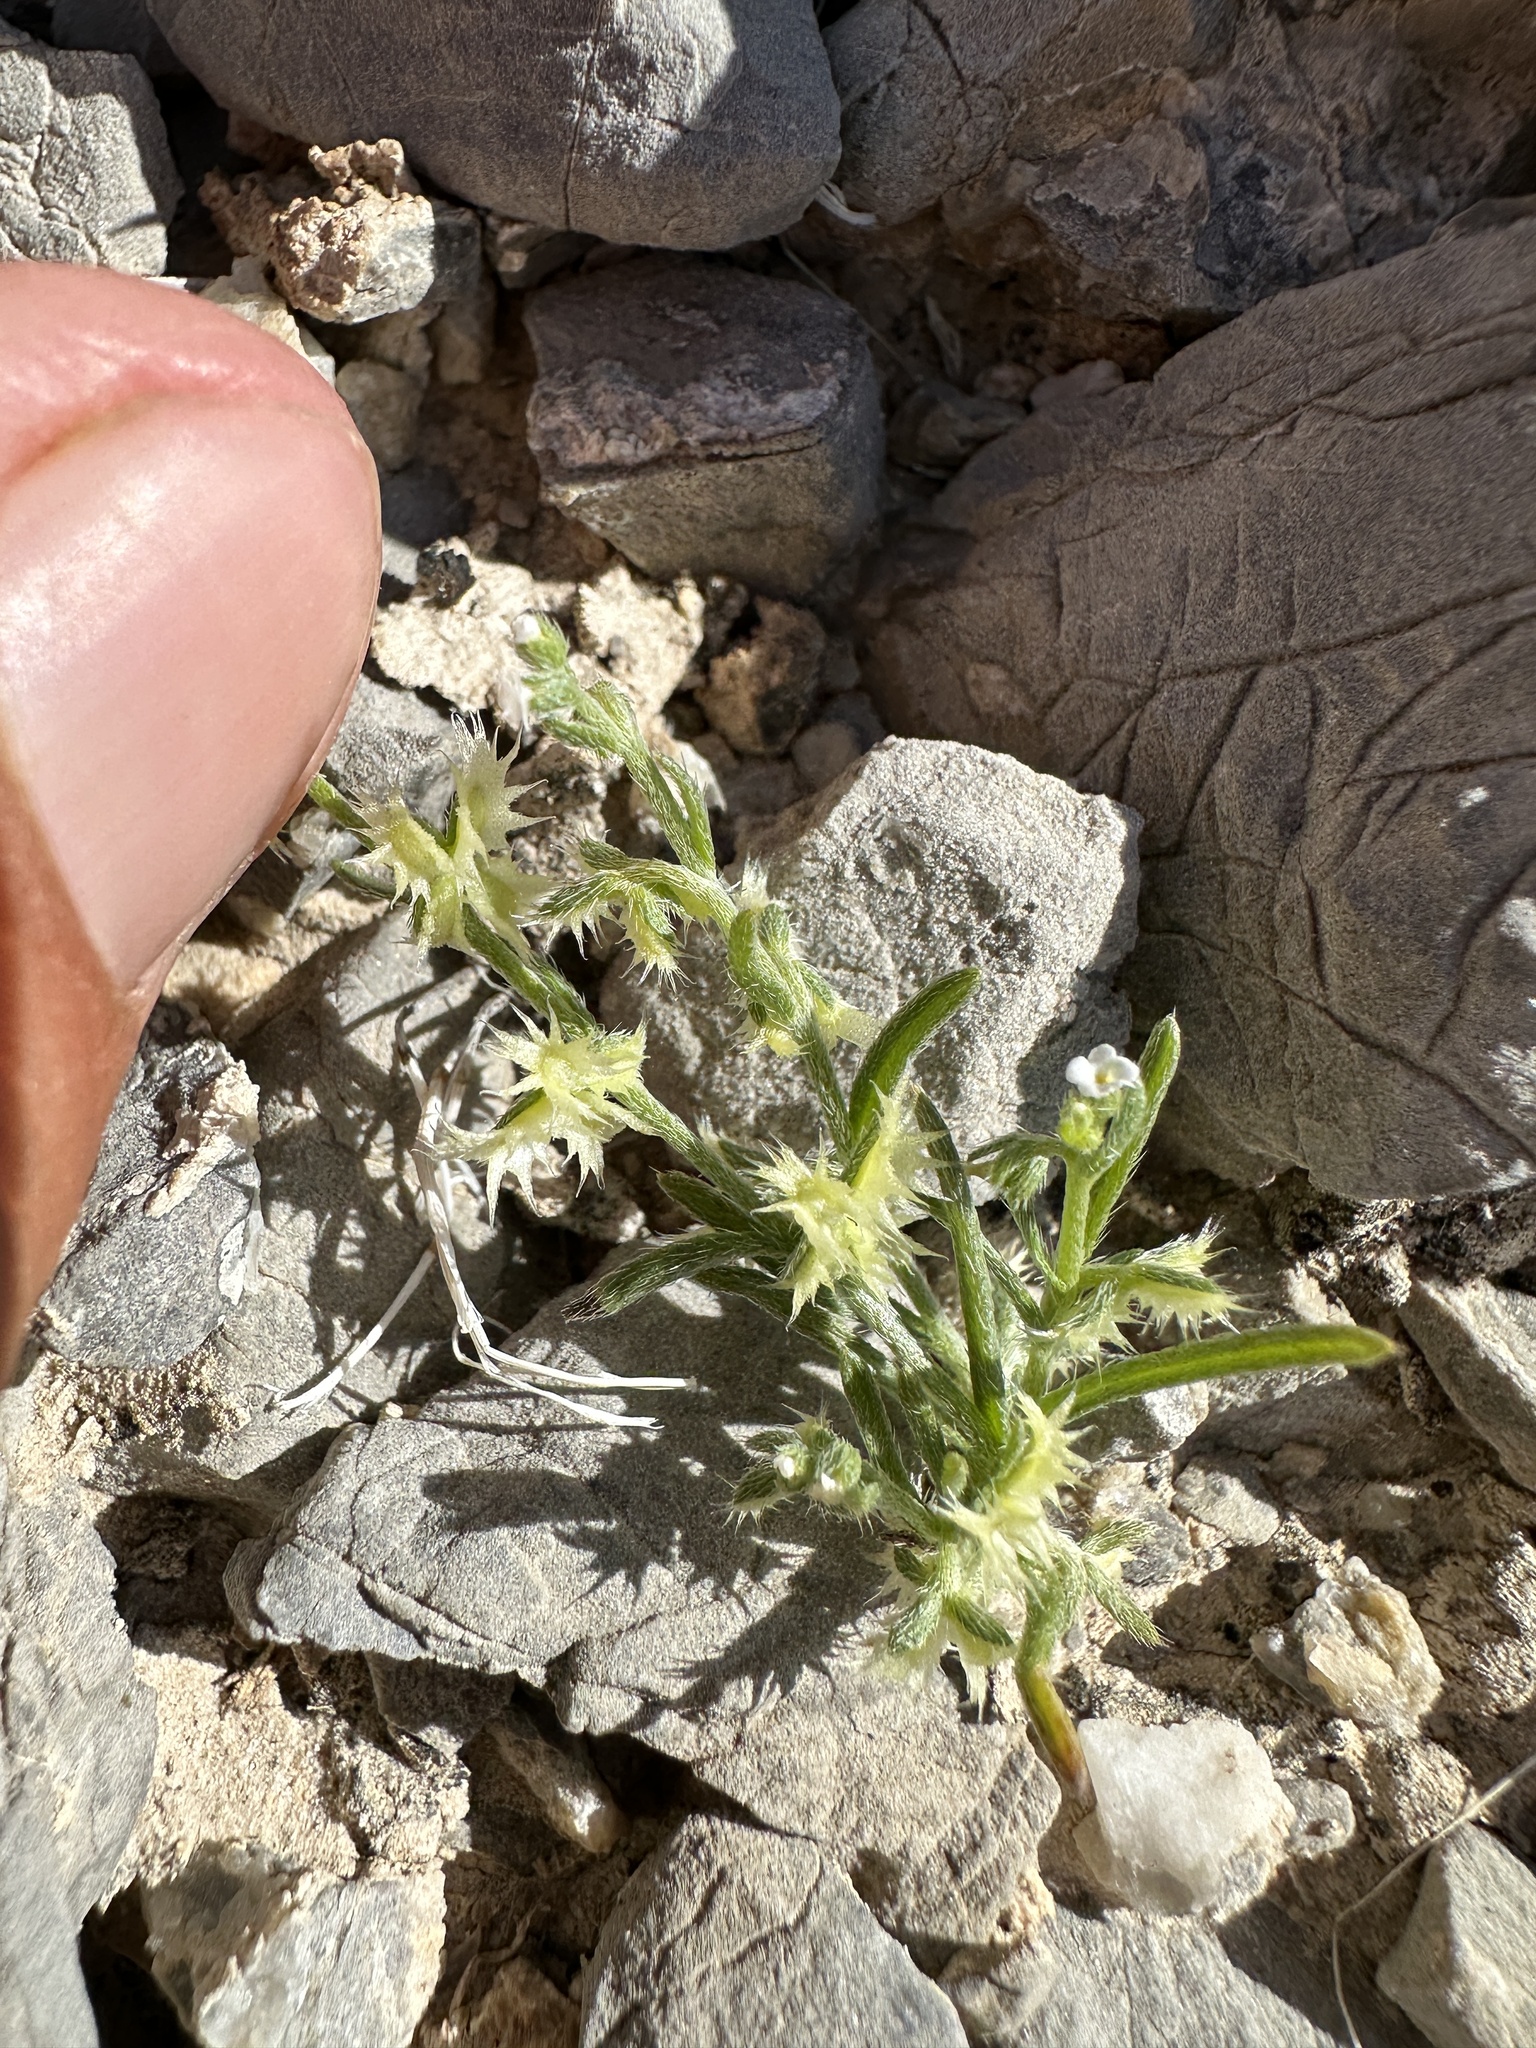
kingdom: Plantae
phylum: Tracheophyta
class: Magnoliopsida
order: Boraginales
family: Boraginaceae
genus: Pectocarya
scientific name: Pectocarya platycarpa
